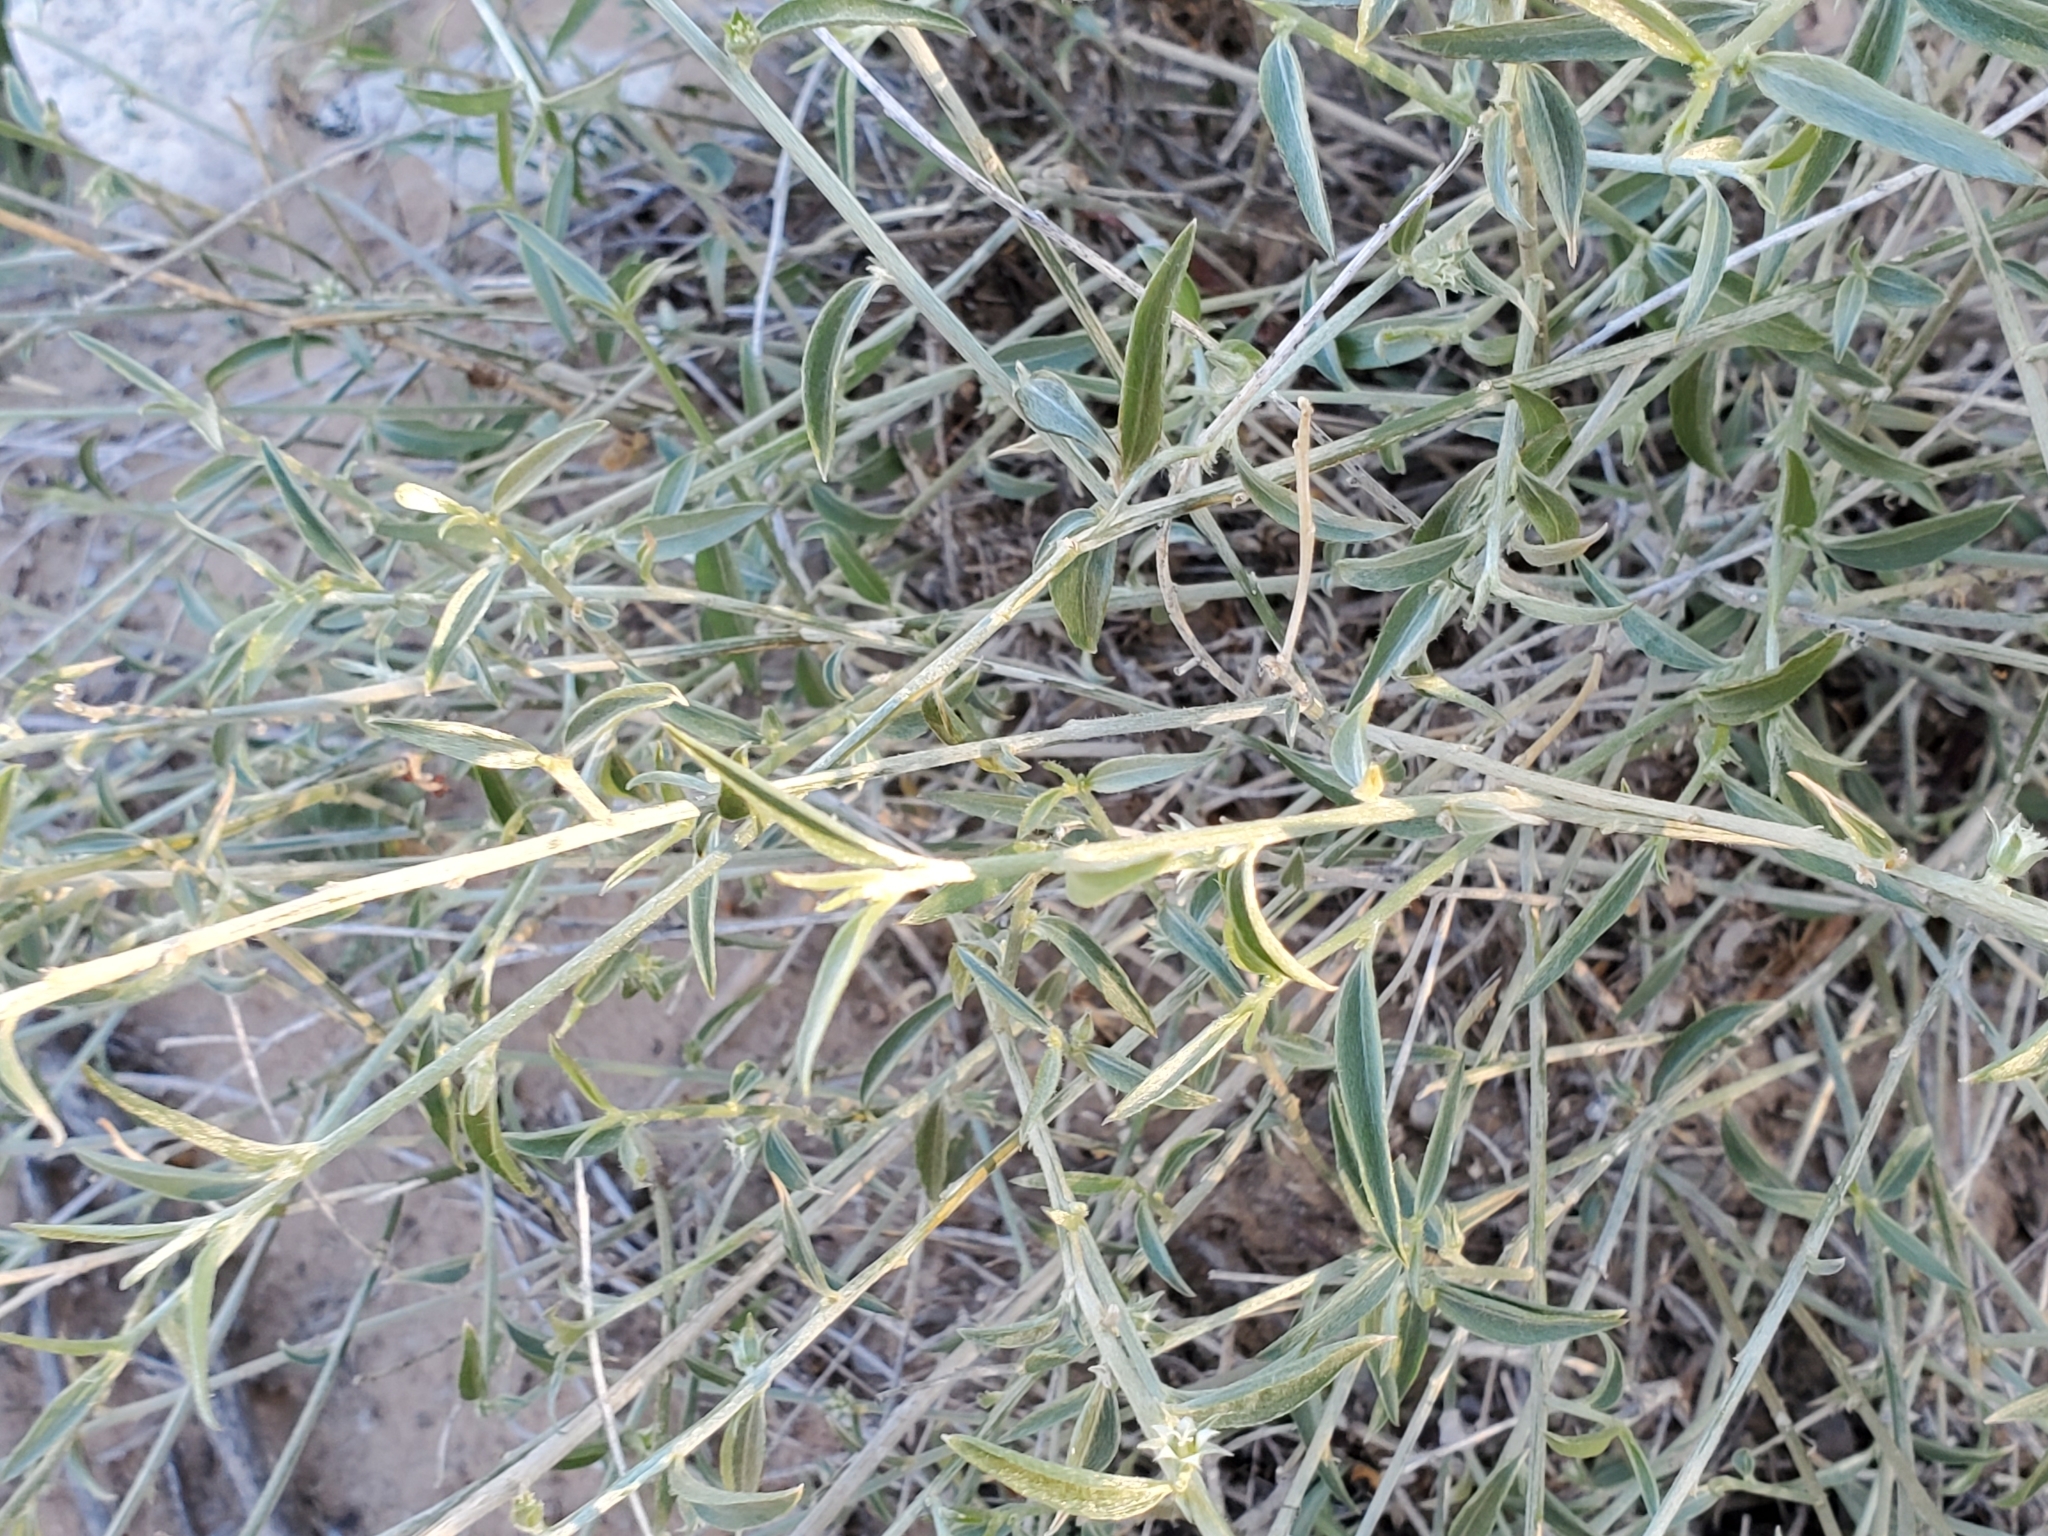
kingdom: Plantae
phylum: Tracheophyta
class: Magnoliopsida
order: Malpighiales
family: Euphorbiaceae
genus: Ditaxis
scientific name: Ditaxis lanceolata
